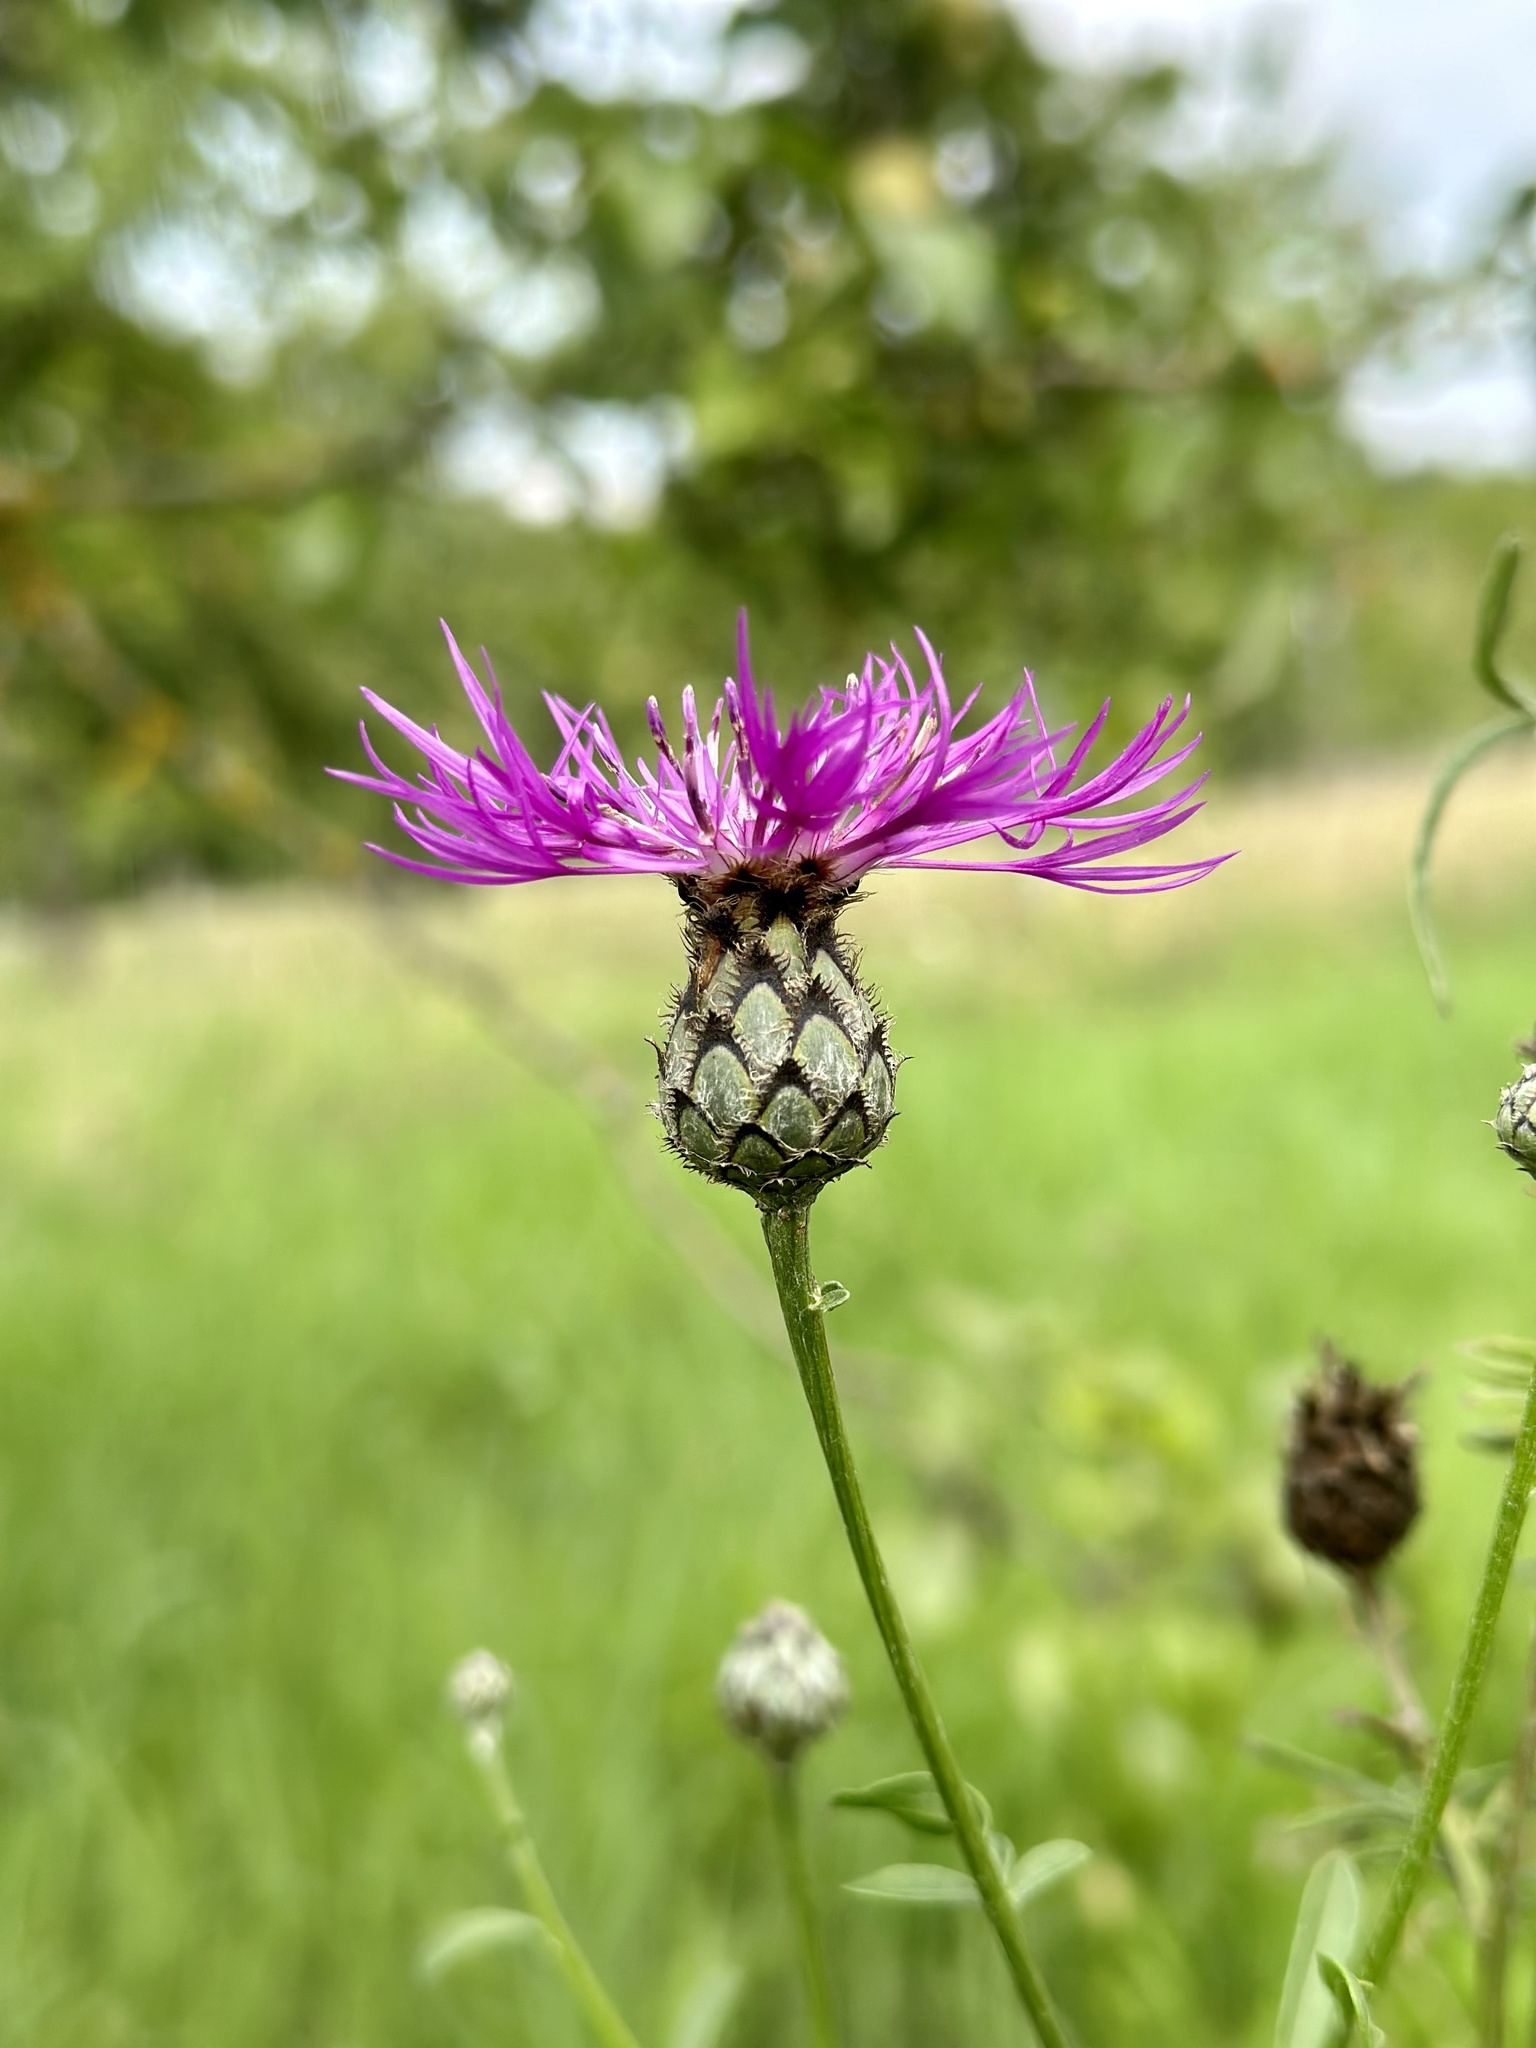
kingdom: Plantae
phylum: Tracheophyta
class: Magnoliopsida
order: Asterales
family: Asteraceae
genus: Centaurea
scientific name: Centaurea scabiosa
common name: Greater knapweed
